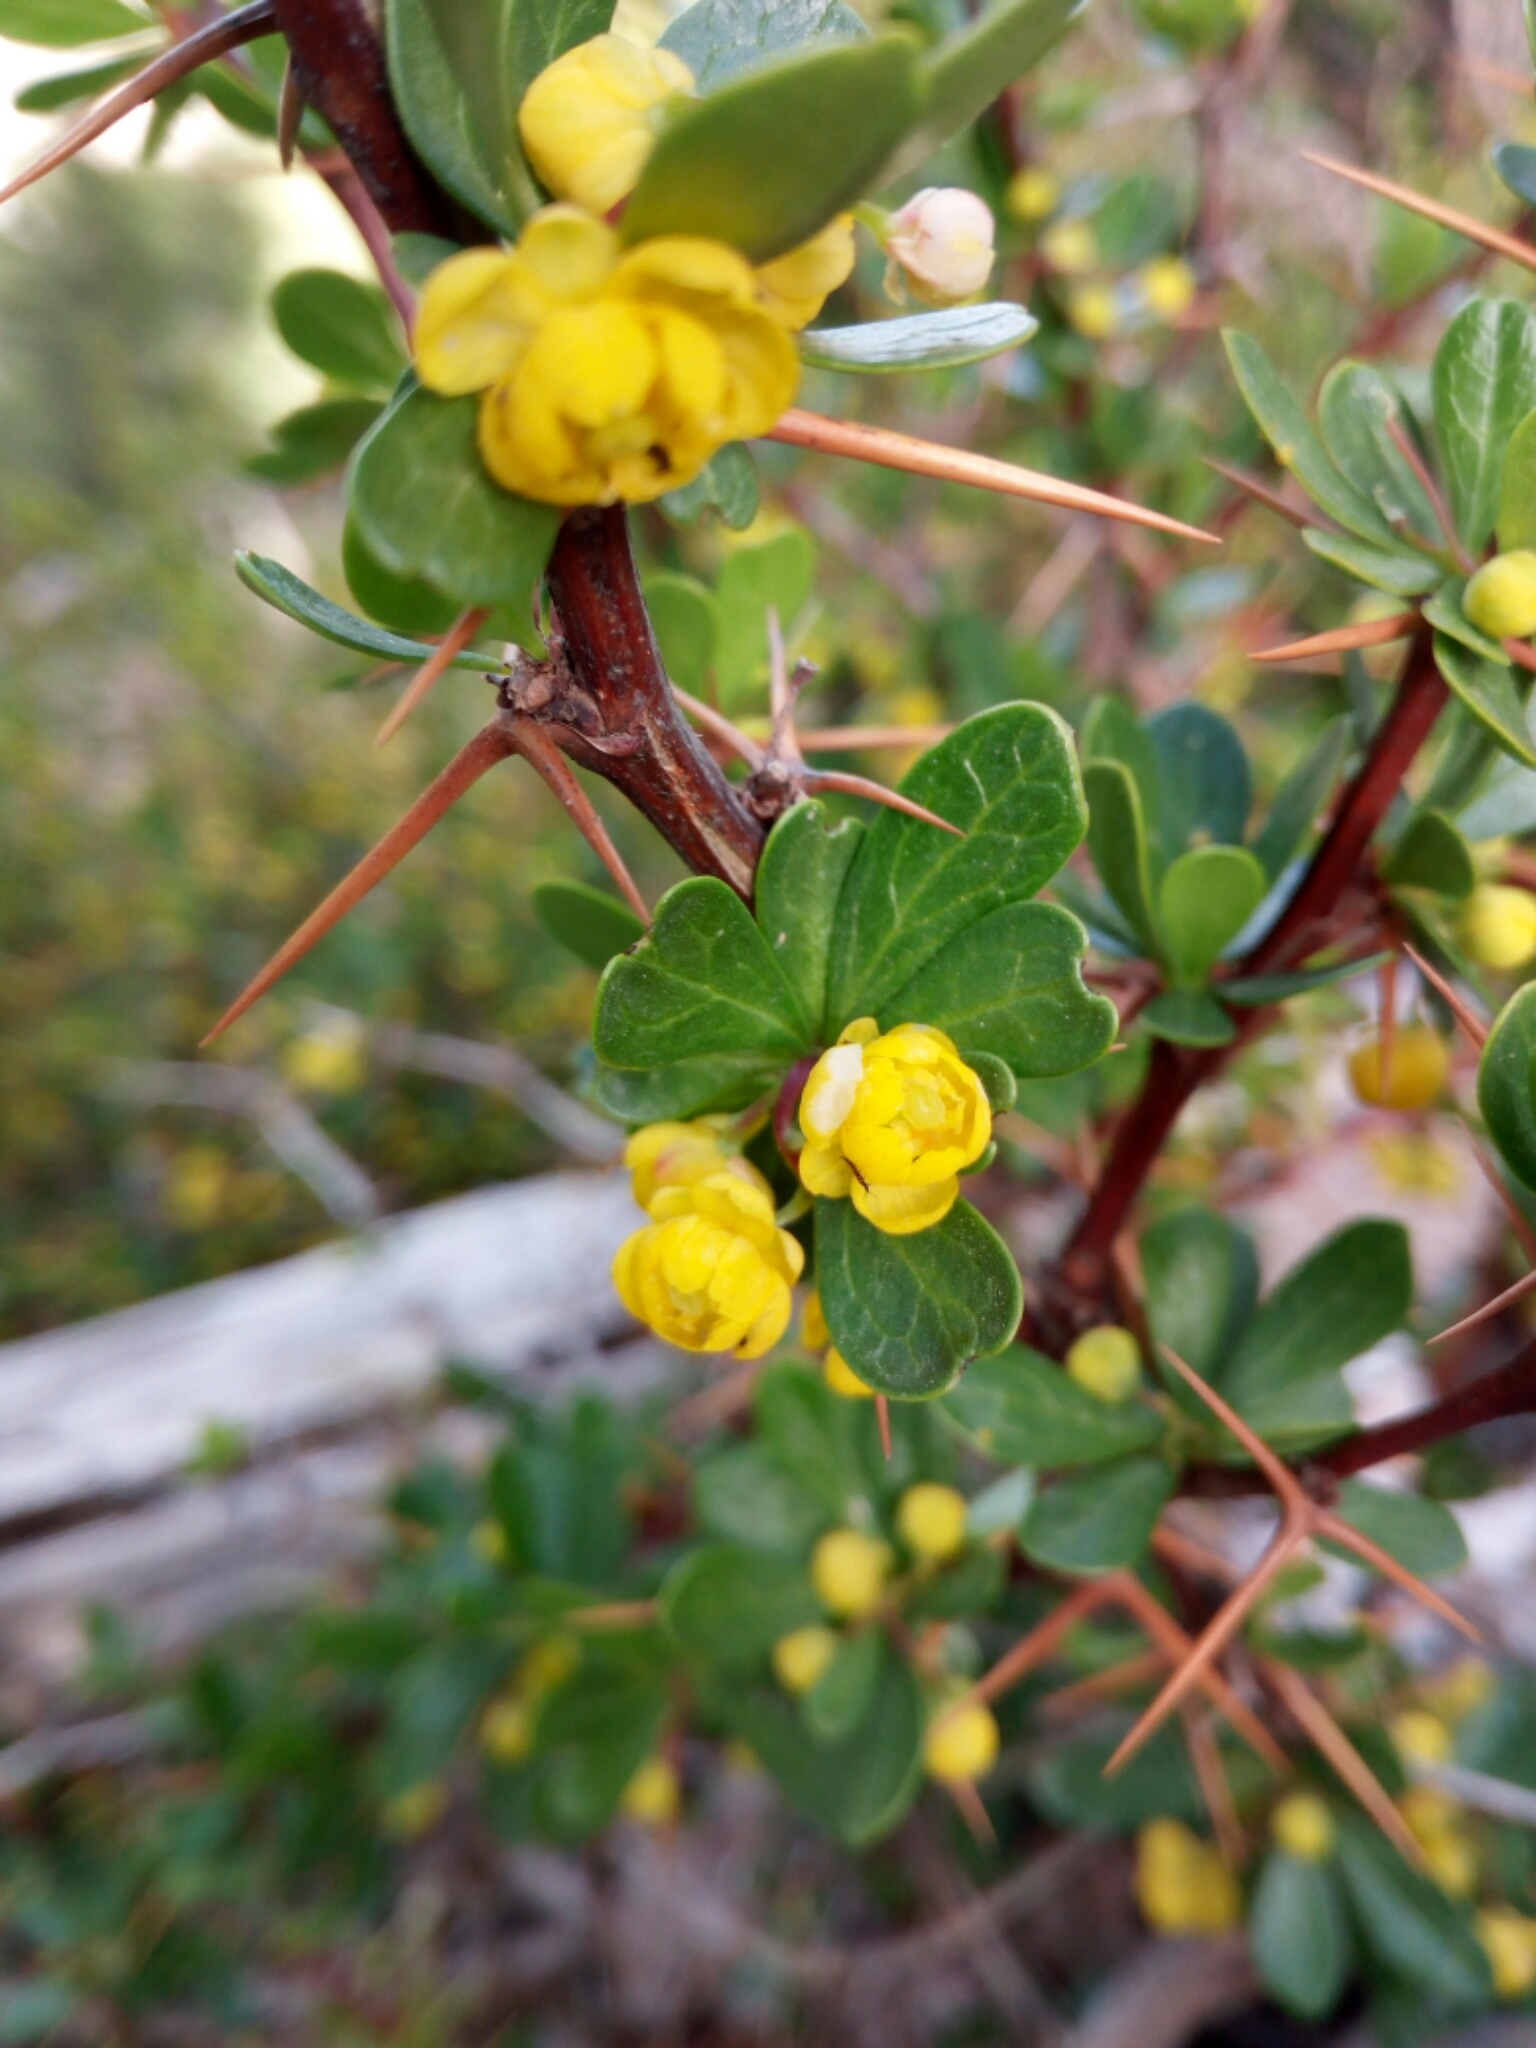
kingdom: Plantae
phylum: Tracheophyta
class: Magnoliopsida
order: Ranunculales
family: Berberidaceae
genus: Berberis
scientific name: Berberis cretica
